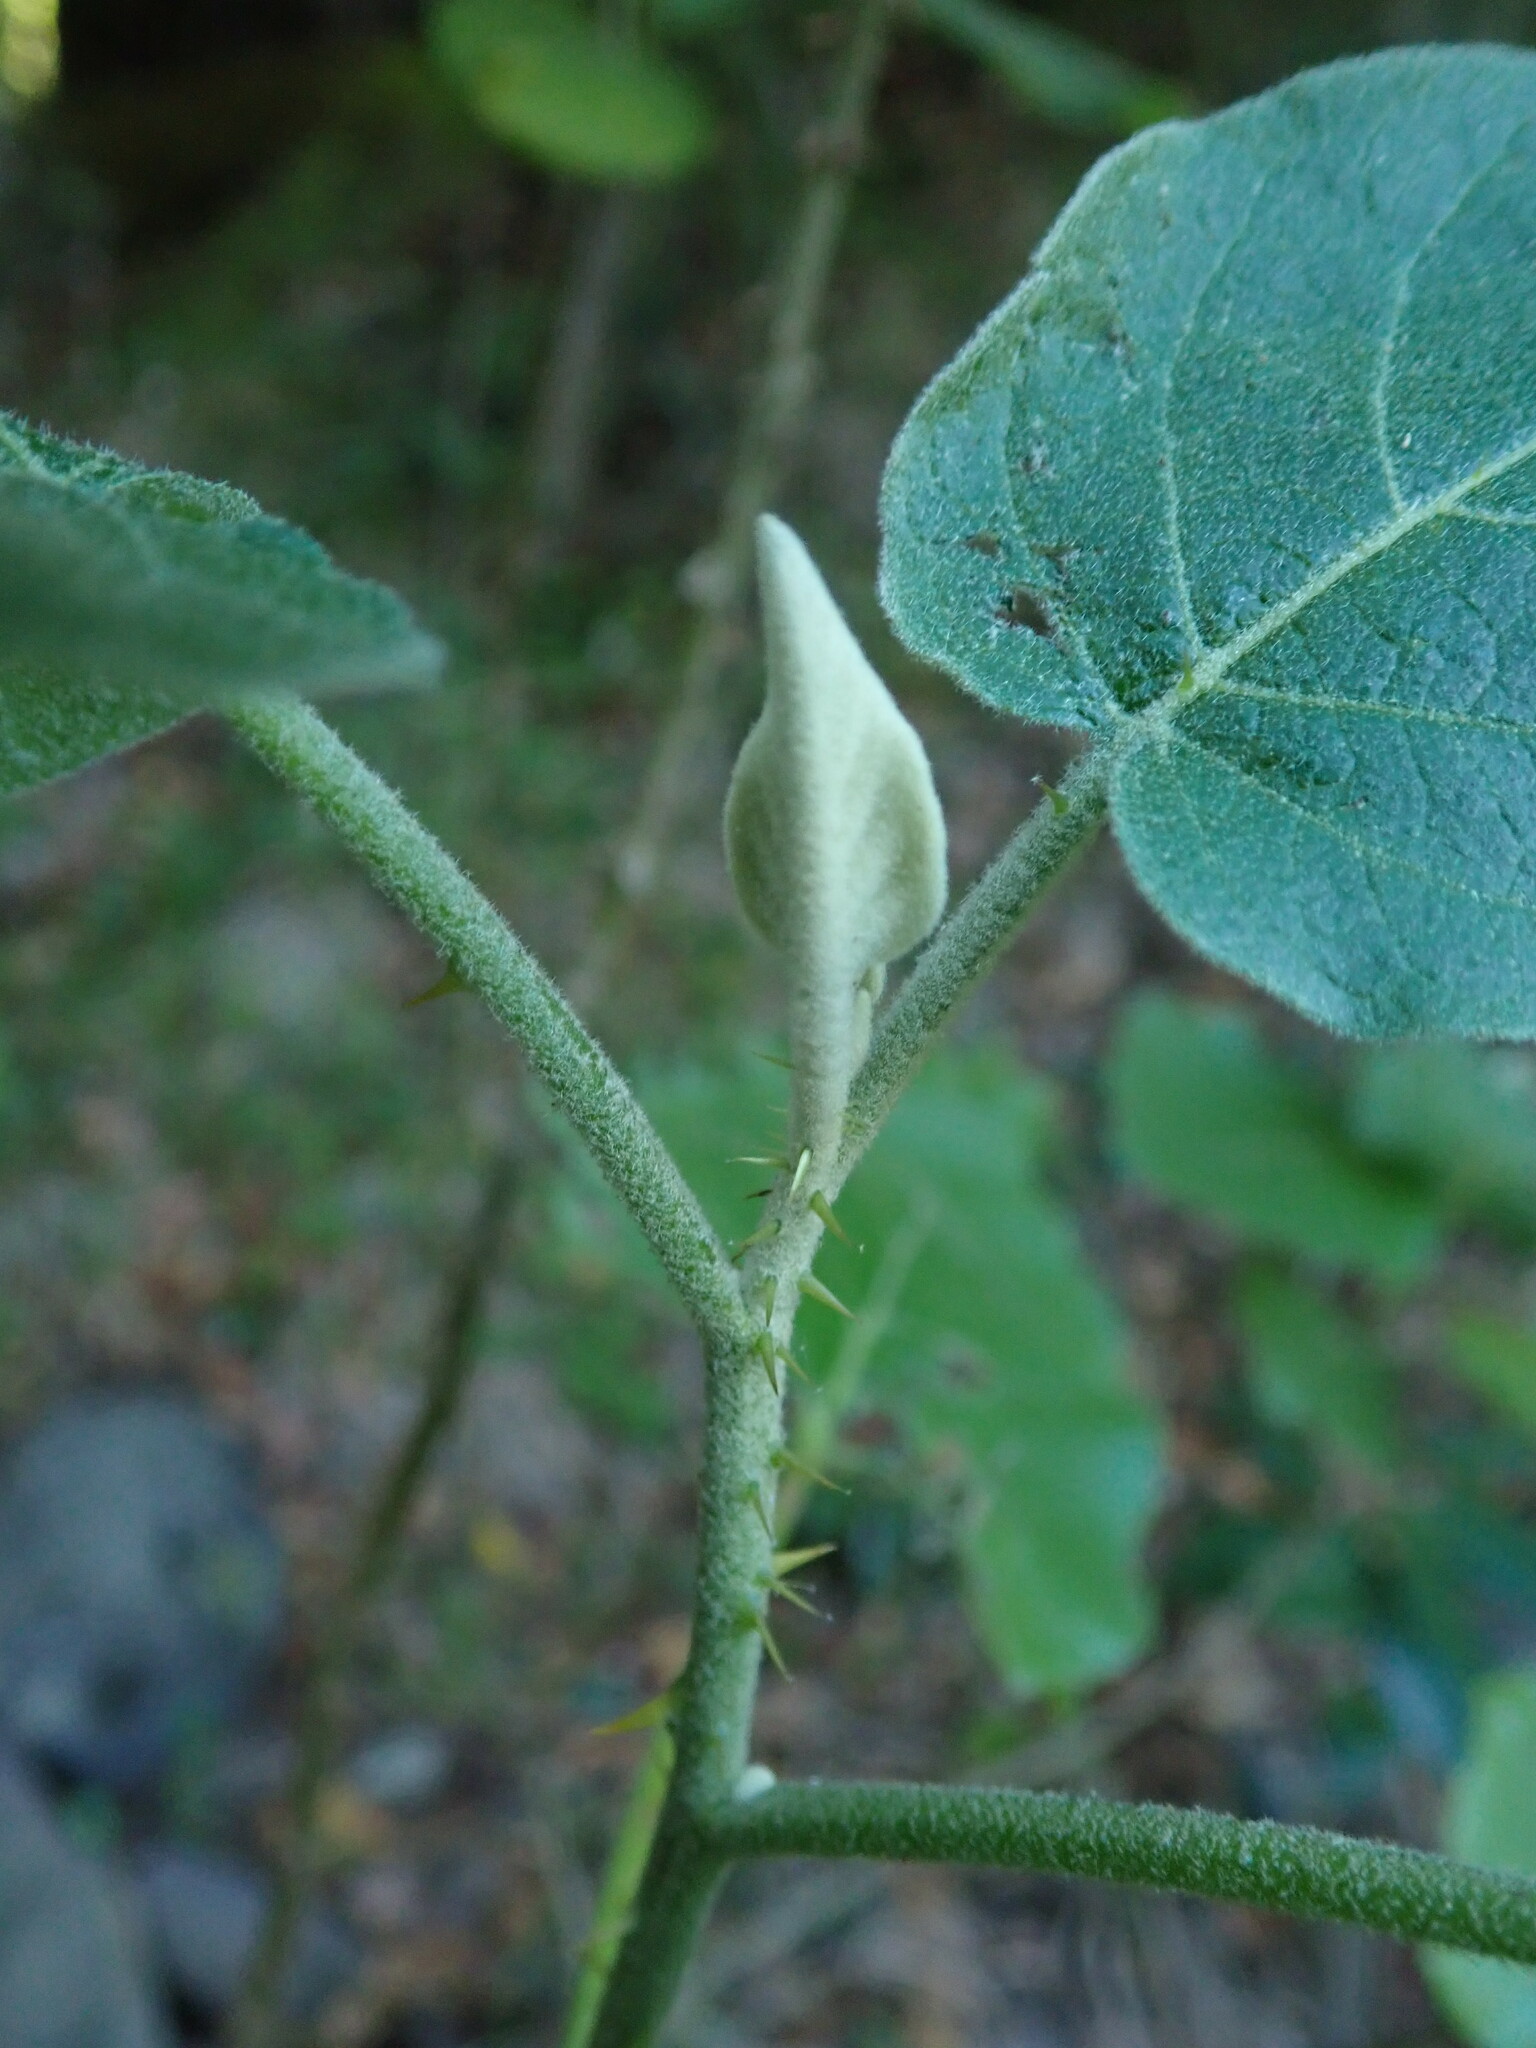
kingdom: Plantae
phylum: Tracheophyta
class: Magnoliopsida
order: Solanales
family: Solanaceae
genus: Solanum
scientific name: Solanum vespertilio
